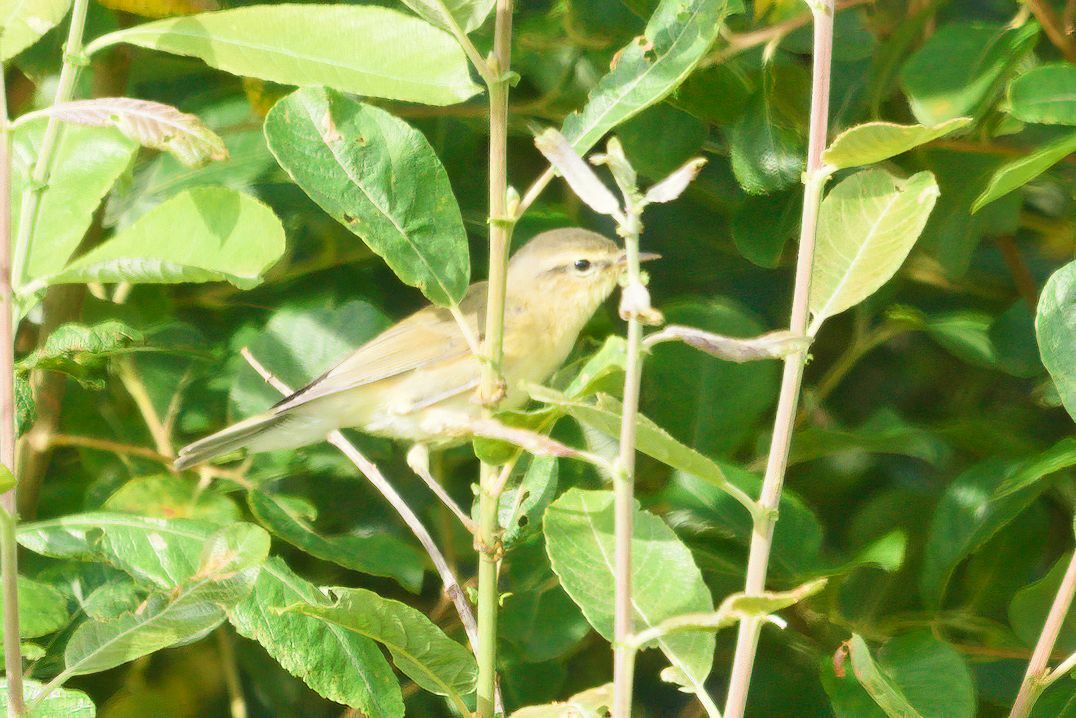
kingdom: Animalia
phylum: Chordata
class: Aves
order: Passeriformes
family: Phylloscopidae
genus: Phylloscopus
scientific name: Phylloscopus trochilus
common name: Willow warbler
